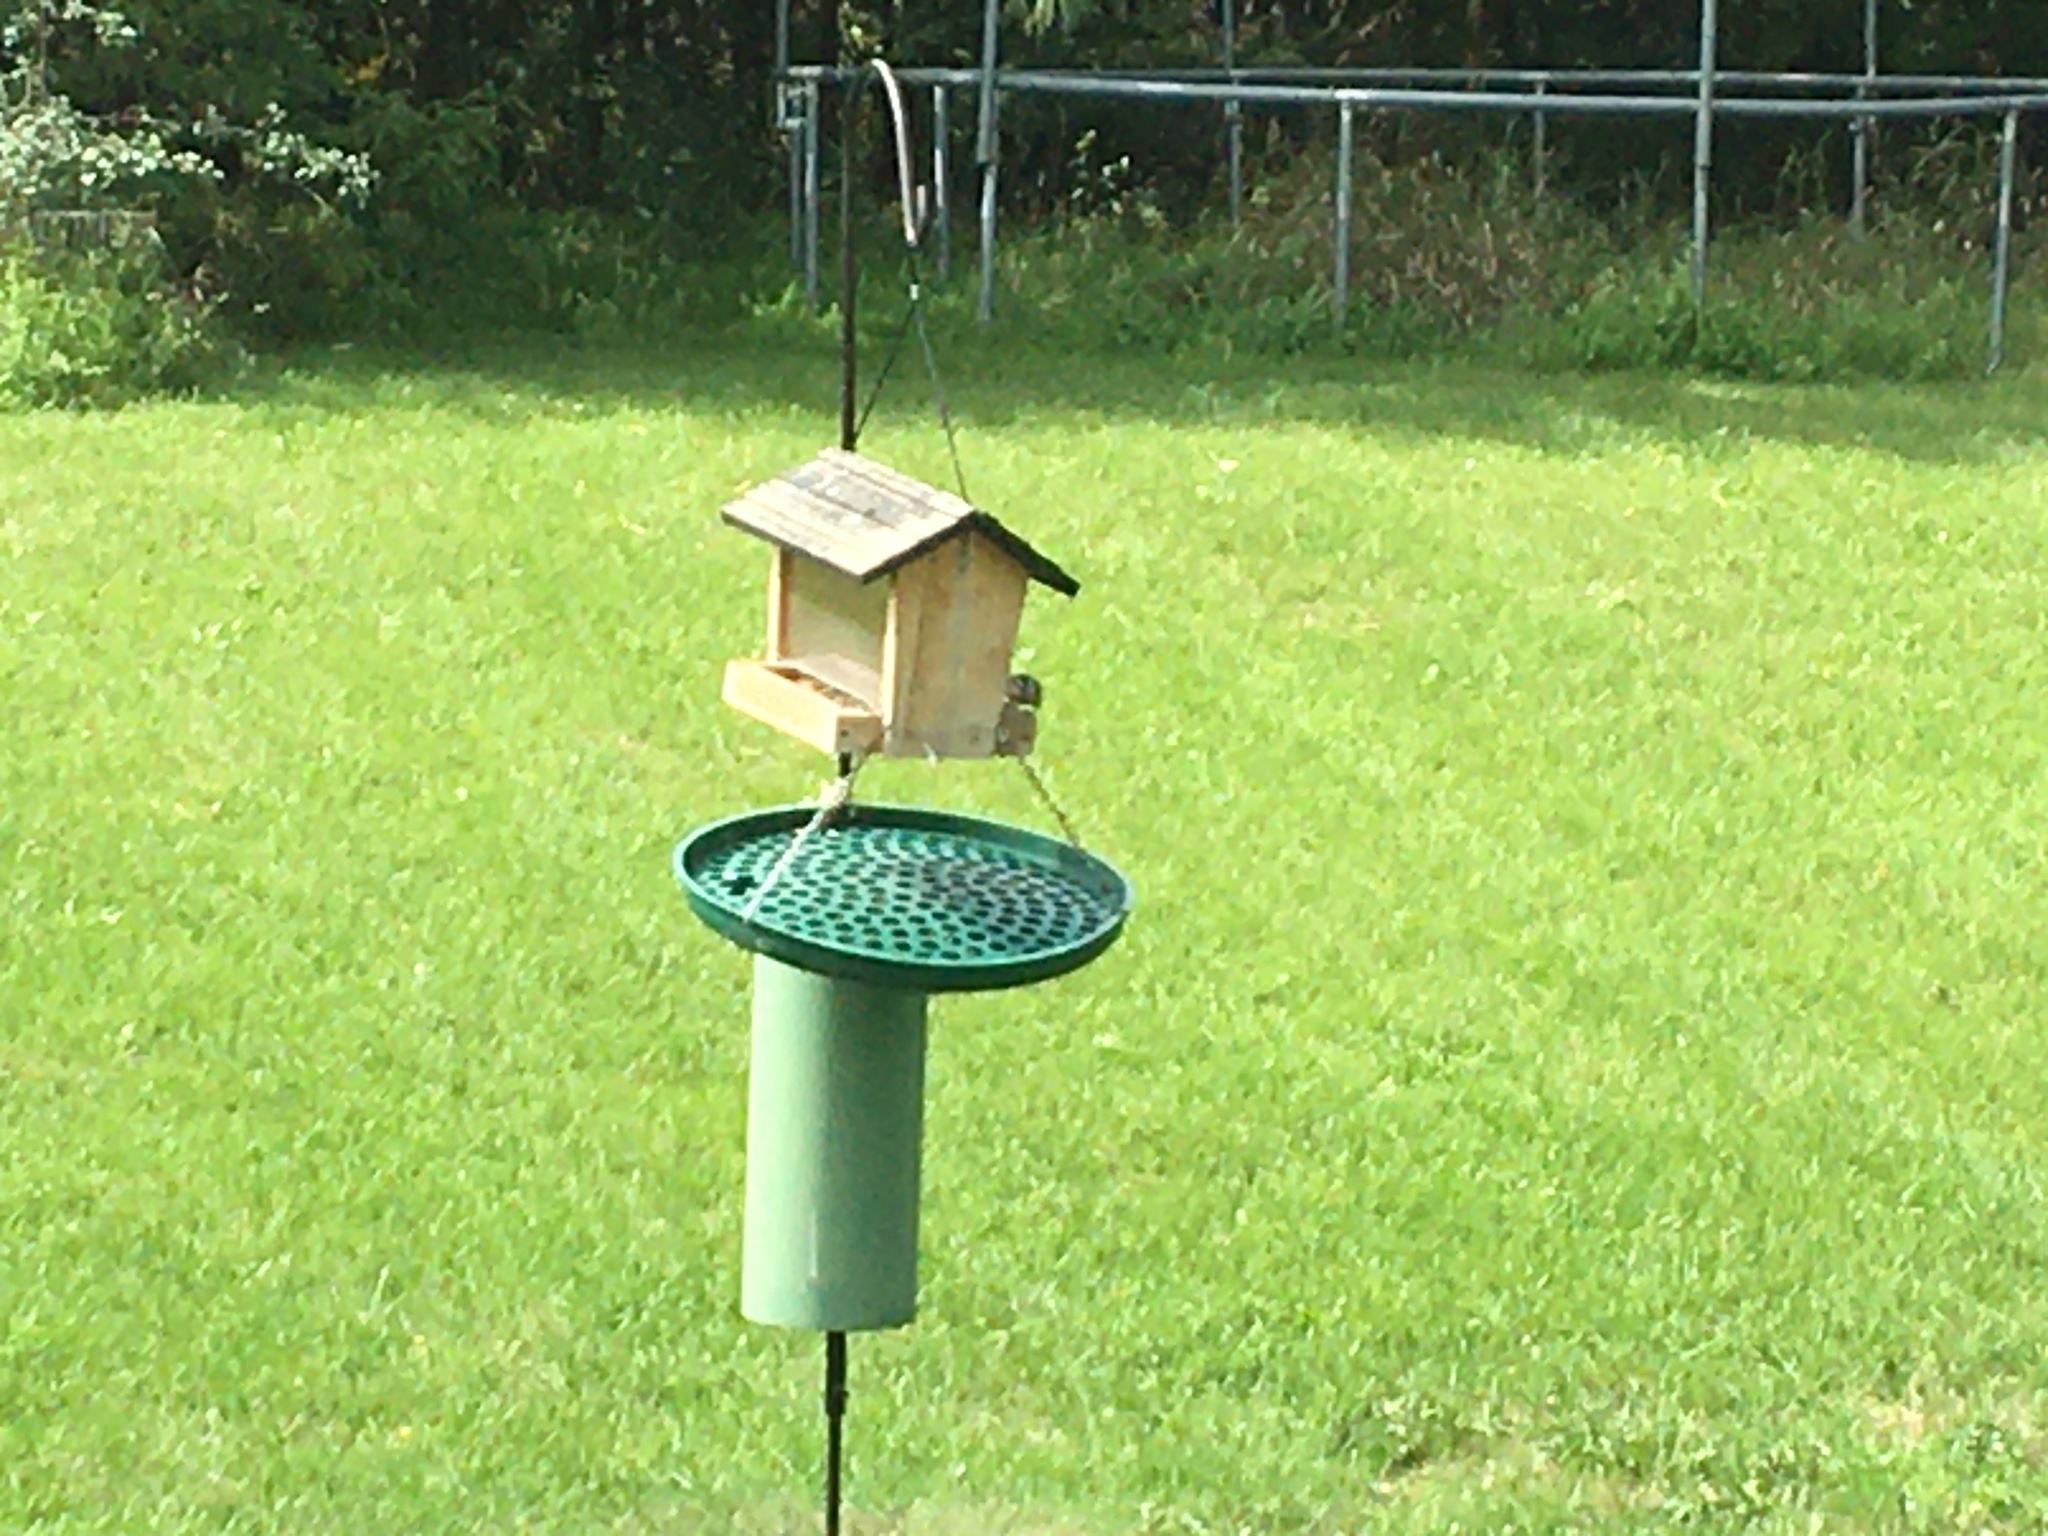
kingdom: Animalia
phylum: Chordata
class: Aves
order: Passeriformes
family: Sittidae
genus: Sitta
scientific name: Sitta canadensis
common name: Red-breasted nuthatch
